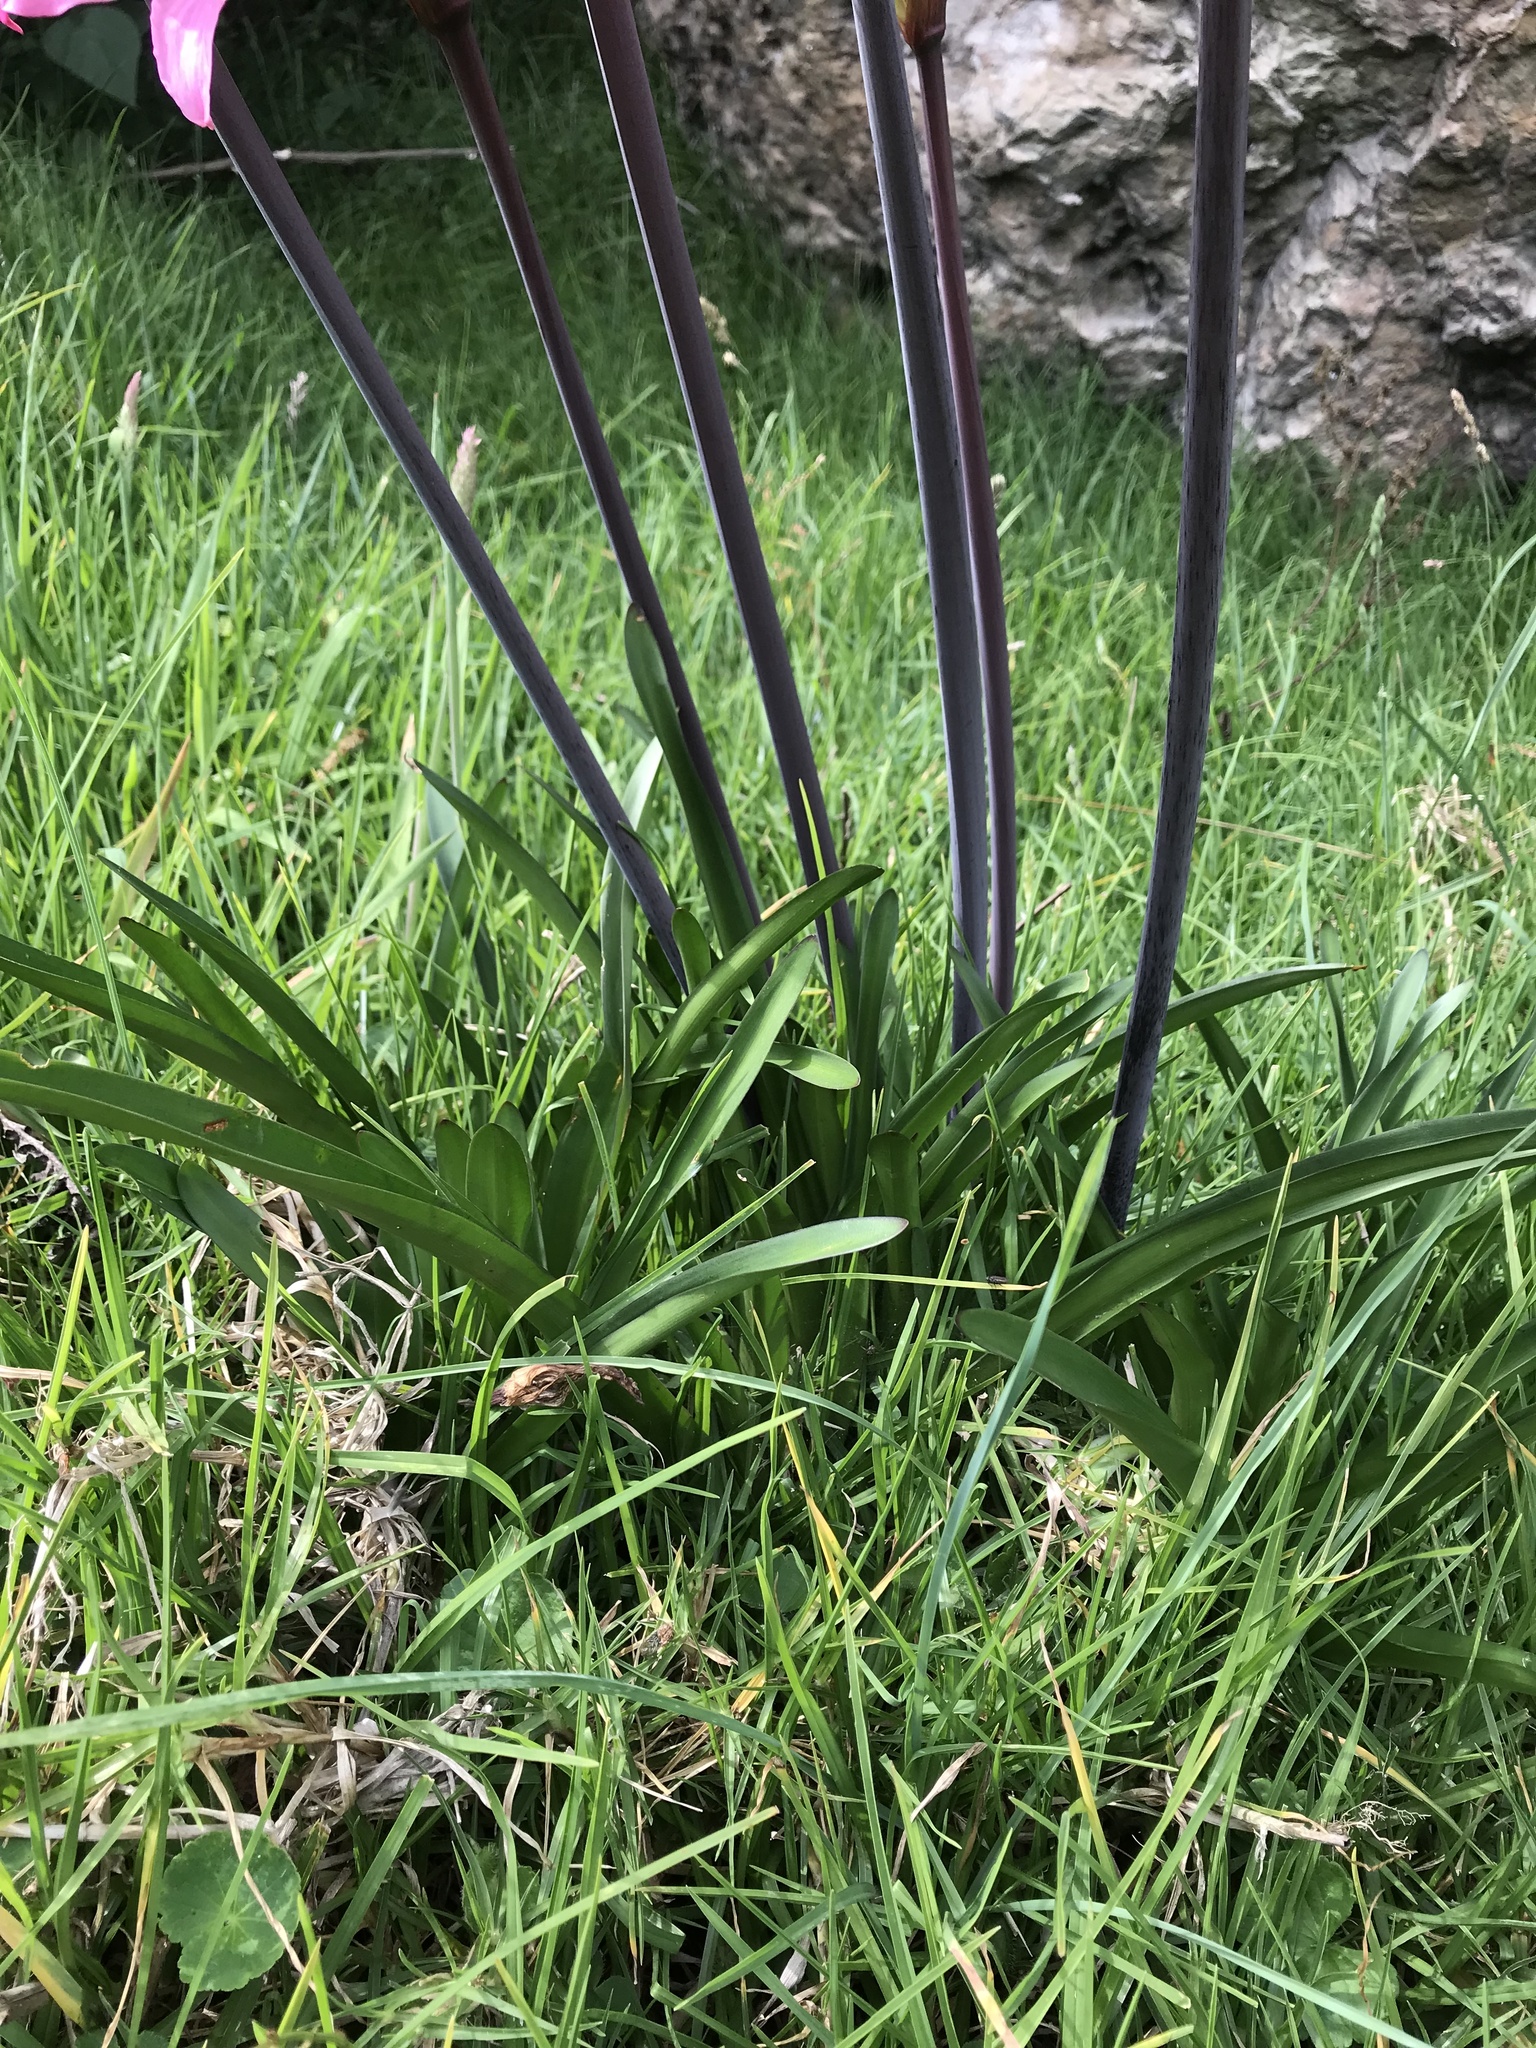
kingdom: Plantae
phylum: Tracheophyta
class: Liliopsida
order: Asparagales
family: Amaryllidaceae
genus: Amaryllis
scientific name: Amaryllis belladonna
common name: Jersey lily
